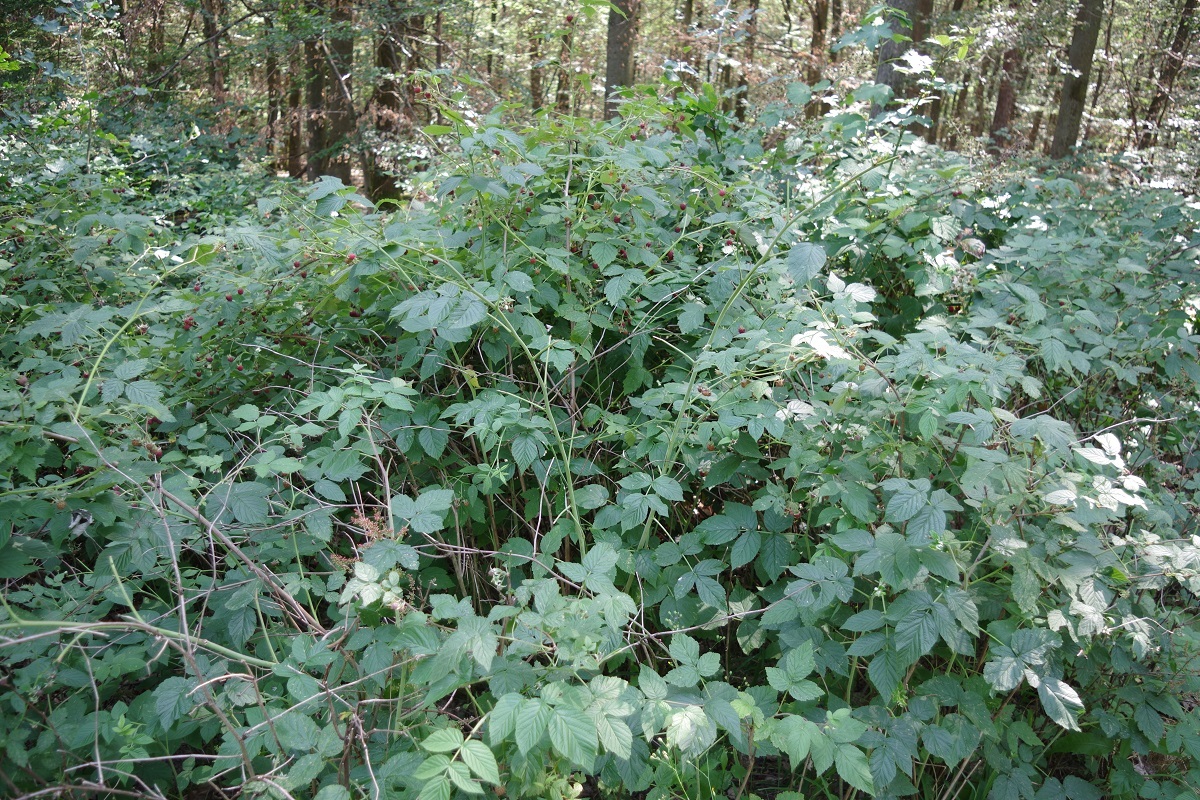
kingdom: Plantae
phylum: Tracheophyta
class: Magnoliopsida
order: Rosales
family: Rosaceae
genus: Rubus
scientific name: Rubus idaeus
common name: Raspberry
